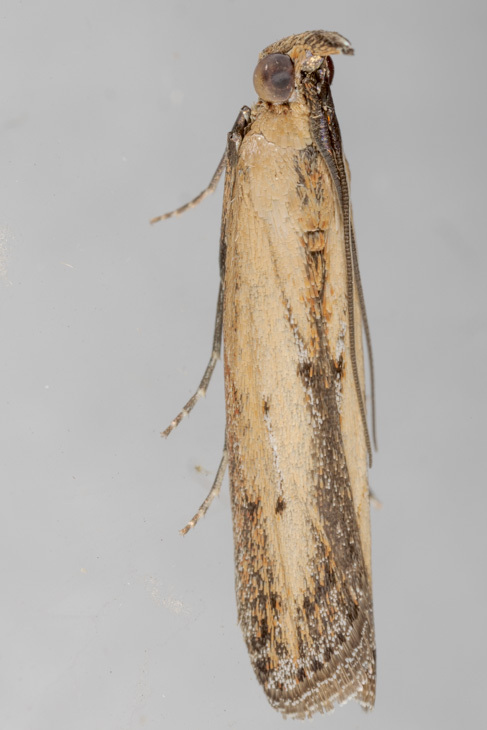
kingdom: Animalia
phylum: Arthropoda
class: Insecta
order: Lepidoptera
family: Pyralidae
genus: Elasmopalpus
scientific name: Elasmopalpus lignosella
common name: Lesser cornstalk borer
